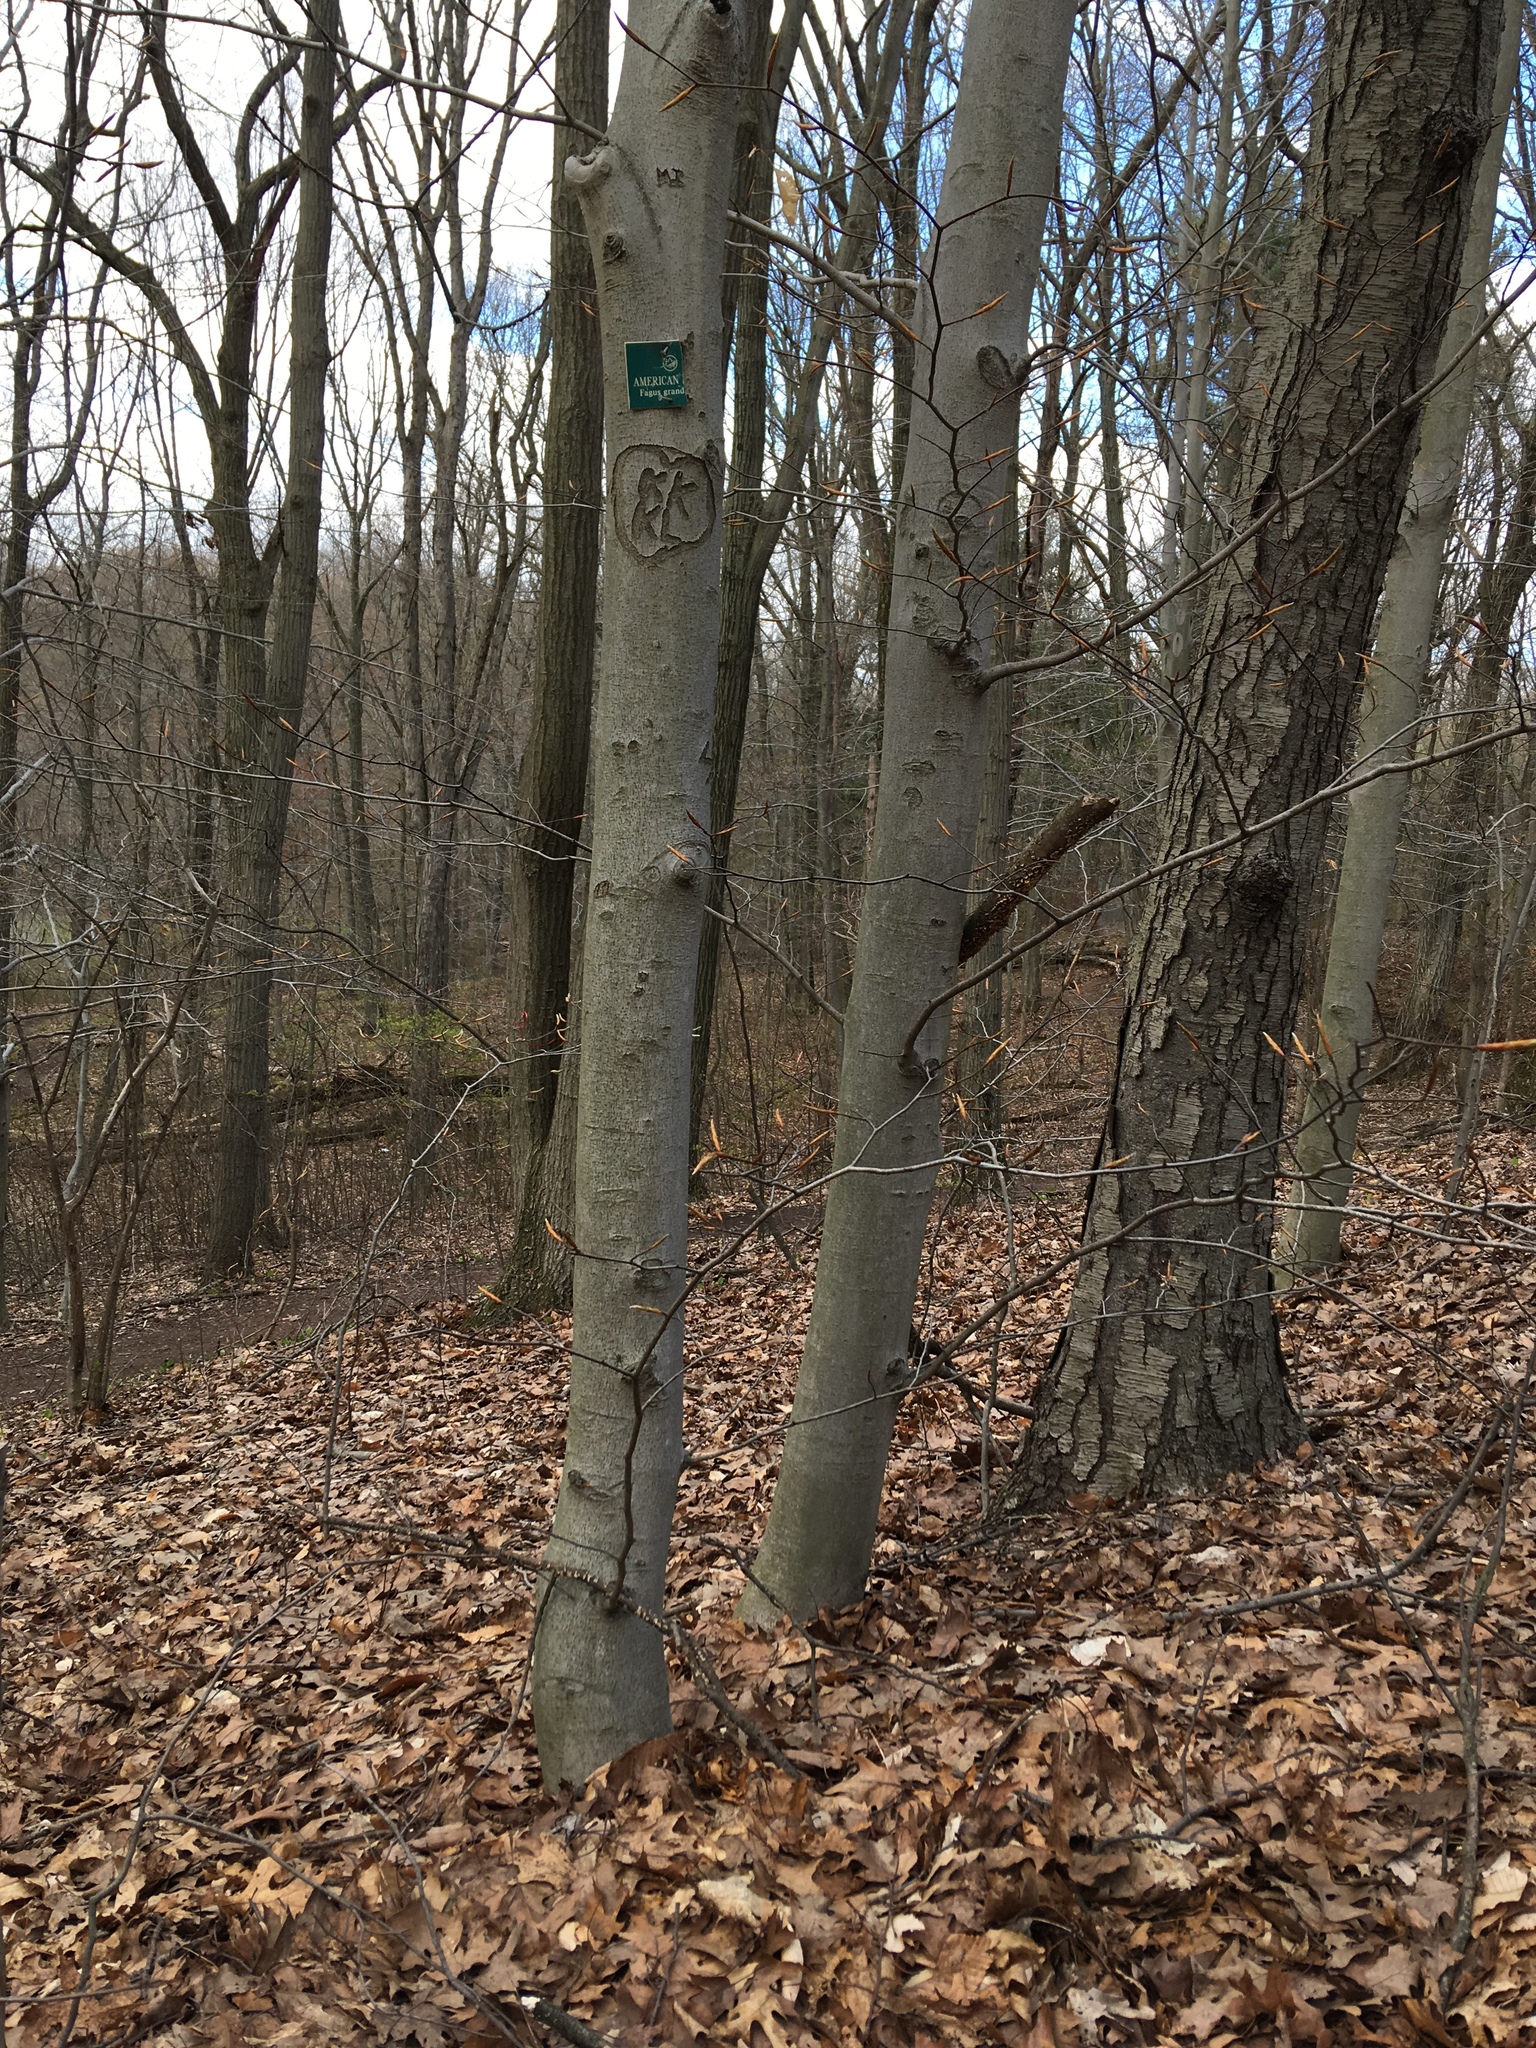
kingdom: Plantae
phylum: Tracheophyta
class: Magnoliopsida
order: Fagales
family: Fagaceae
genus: Fagus
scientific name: Fagus grandifolia
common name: American beech
